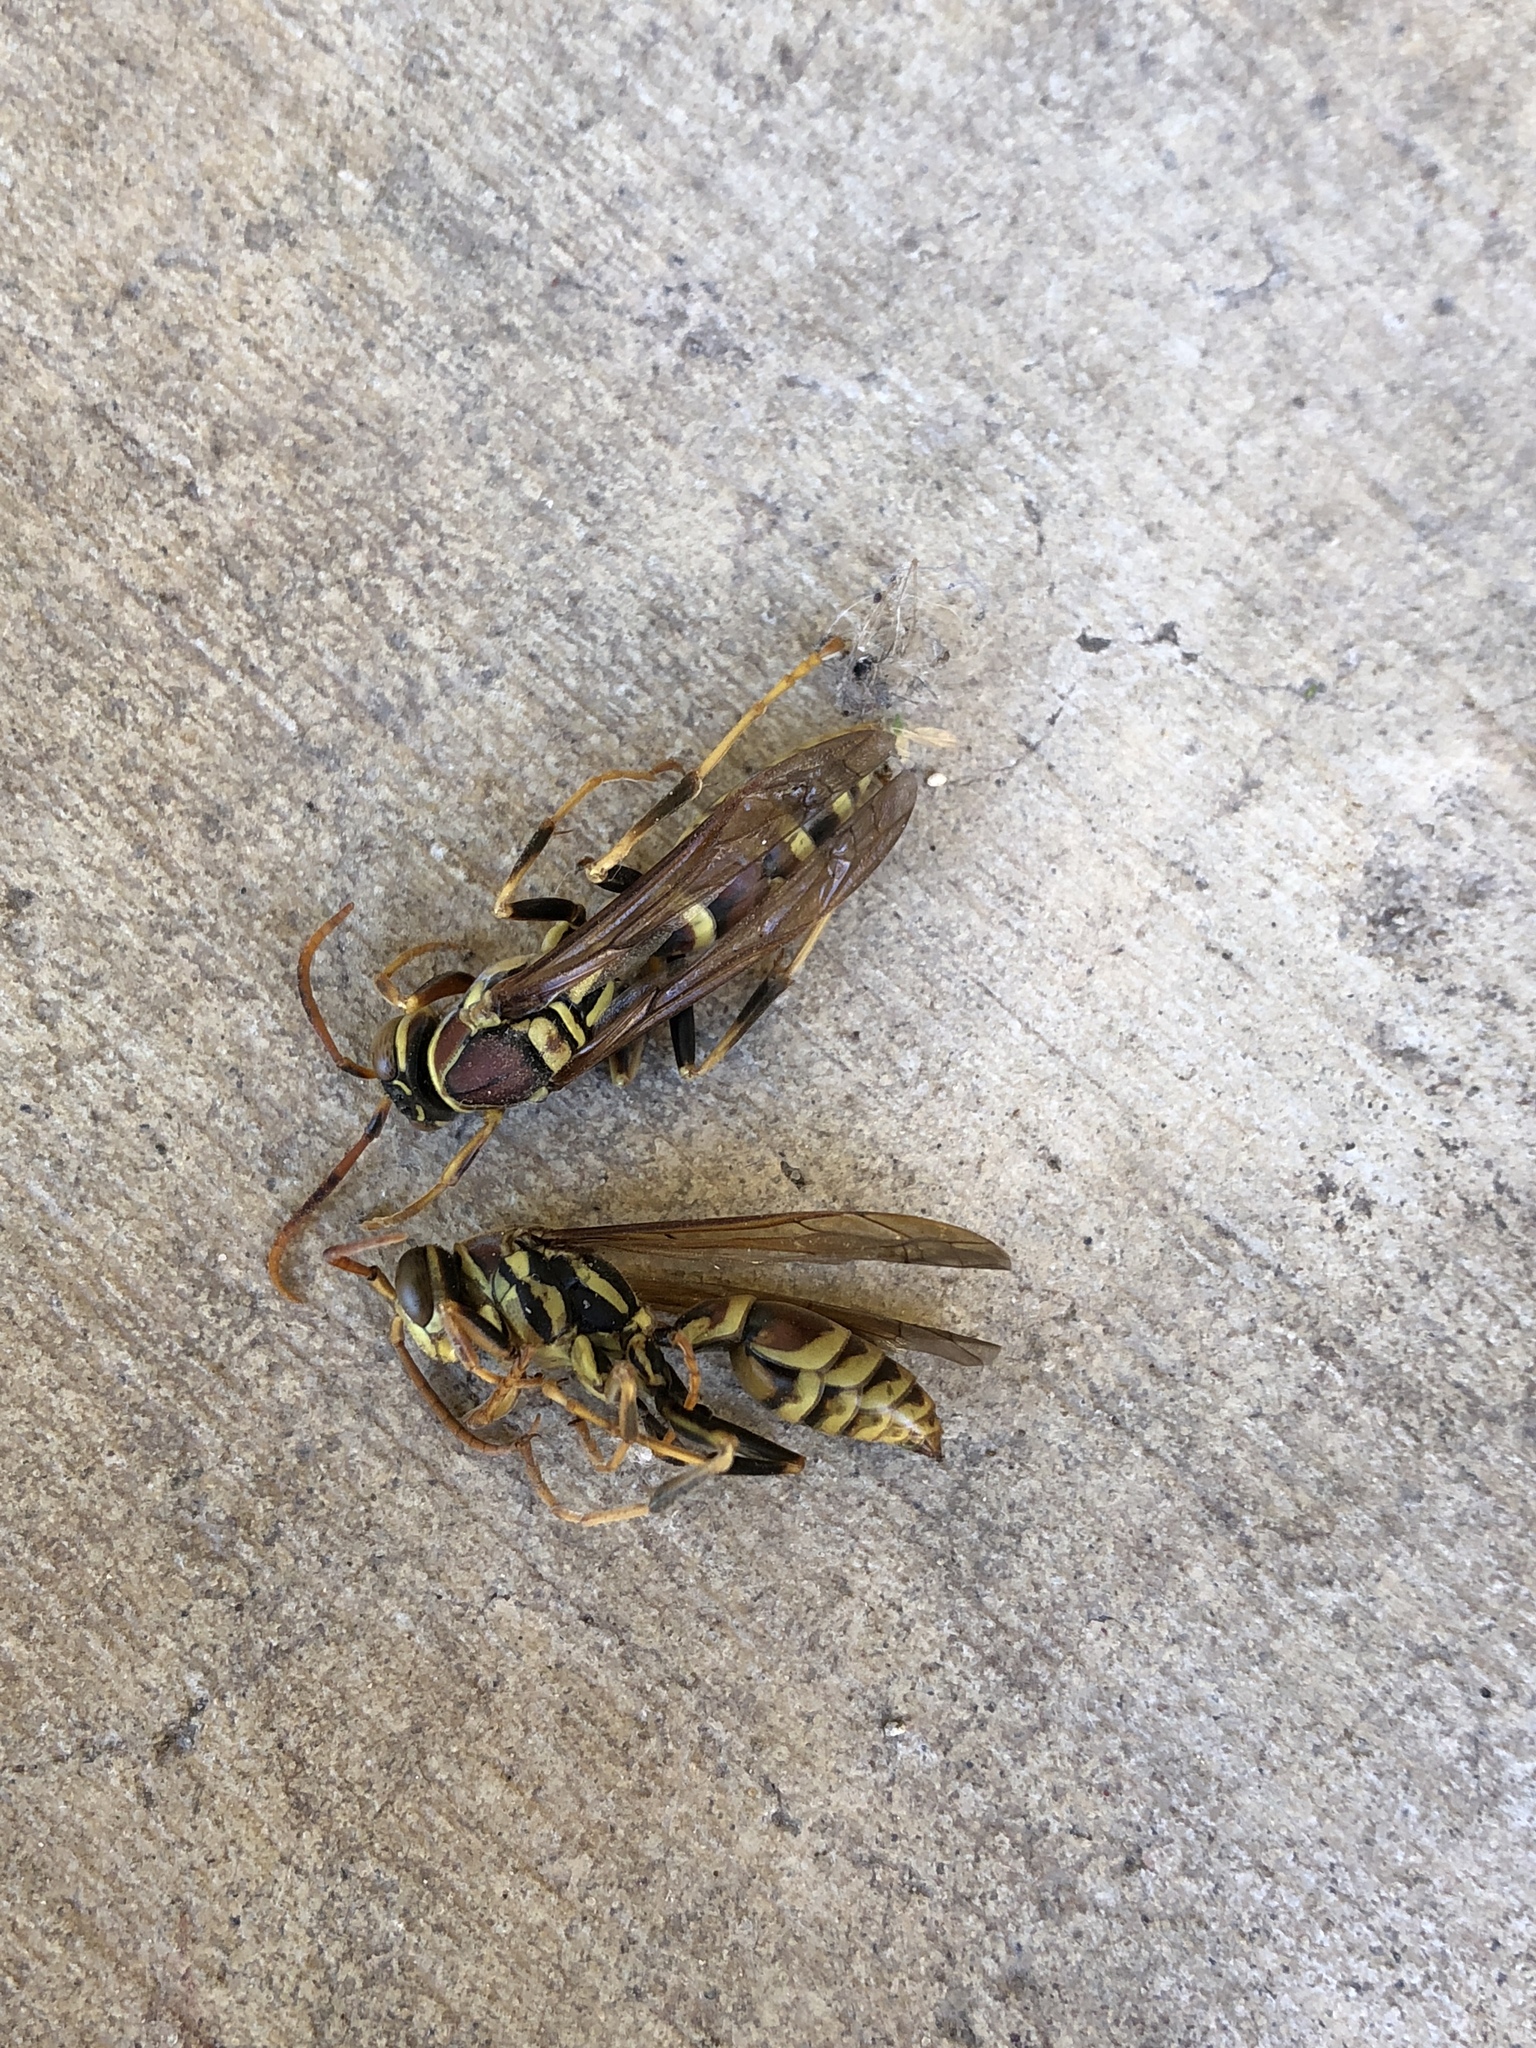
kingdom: Animalia
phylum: Arthropoda
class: Insecta
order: Hymenoptera
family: Eumenidae
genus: Polistes
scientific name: Polistes exclamans
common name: Paper wasp
